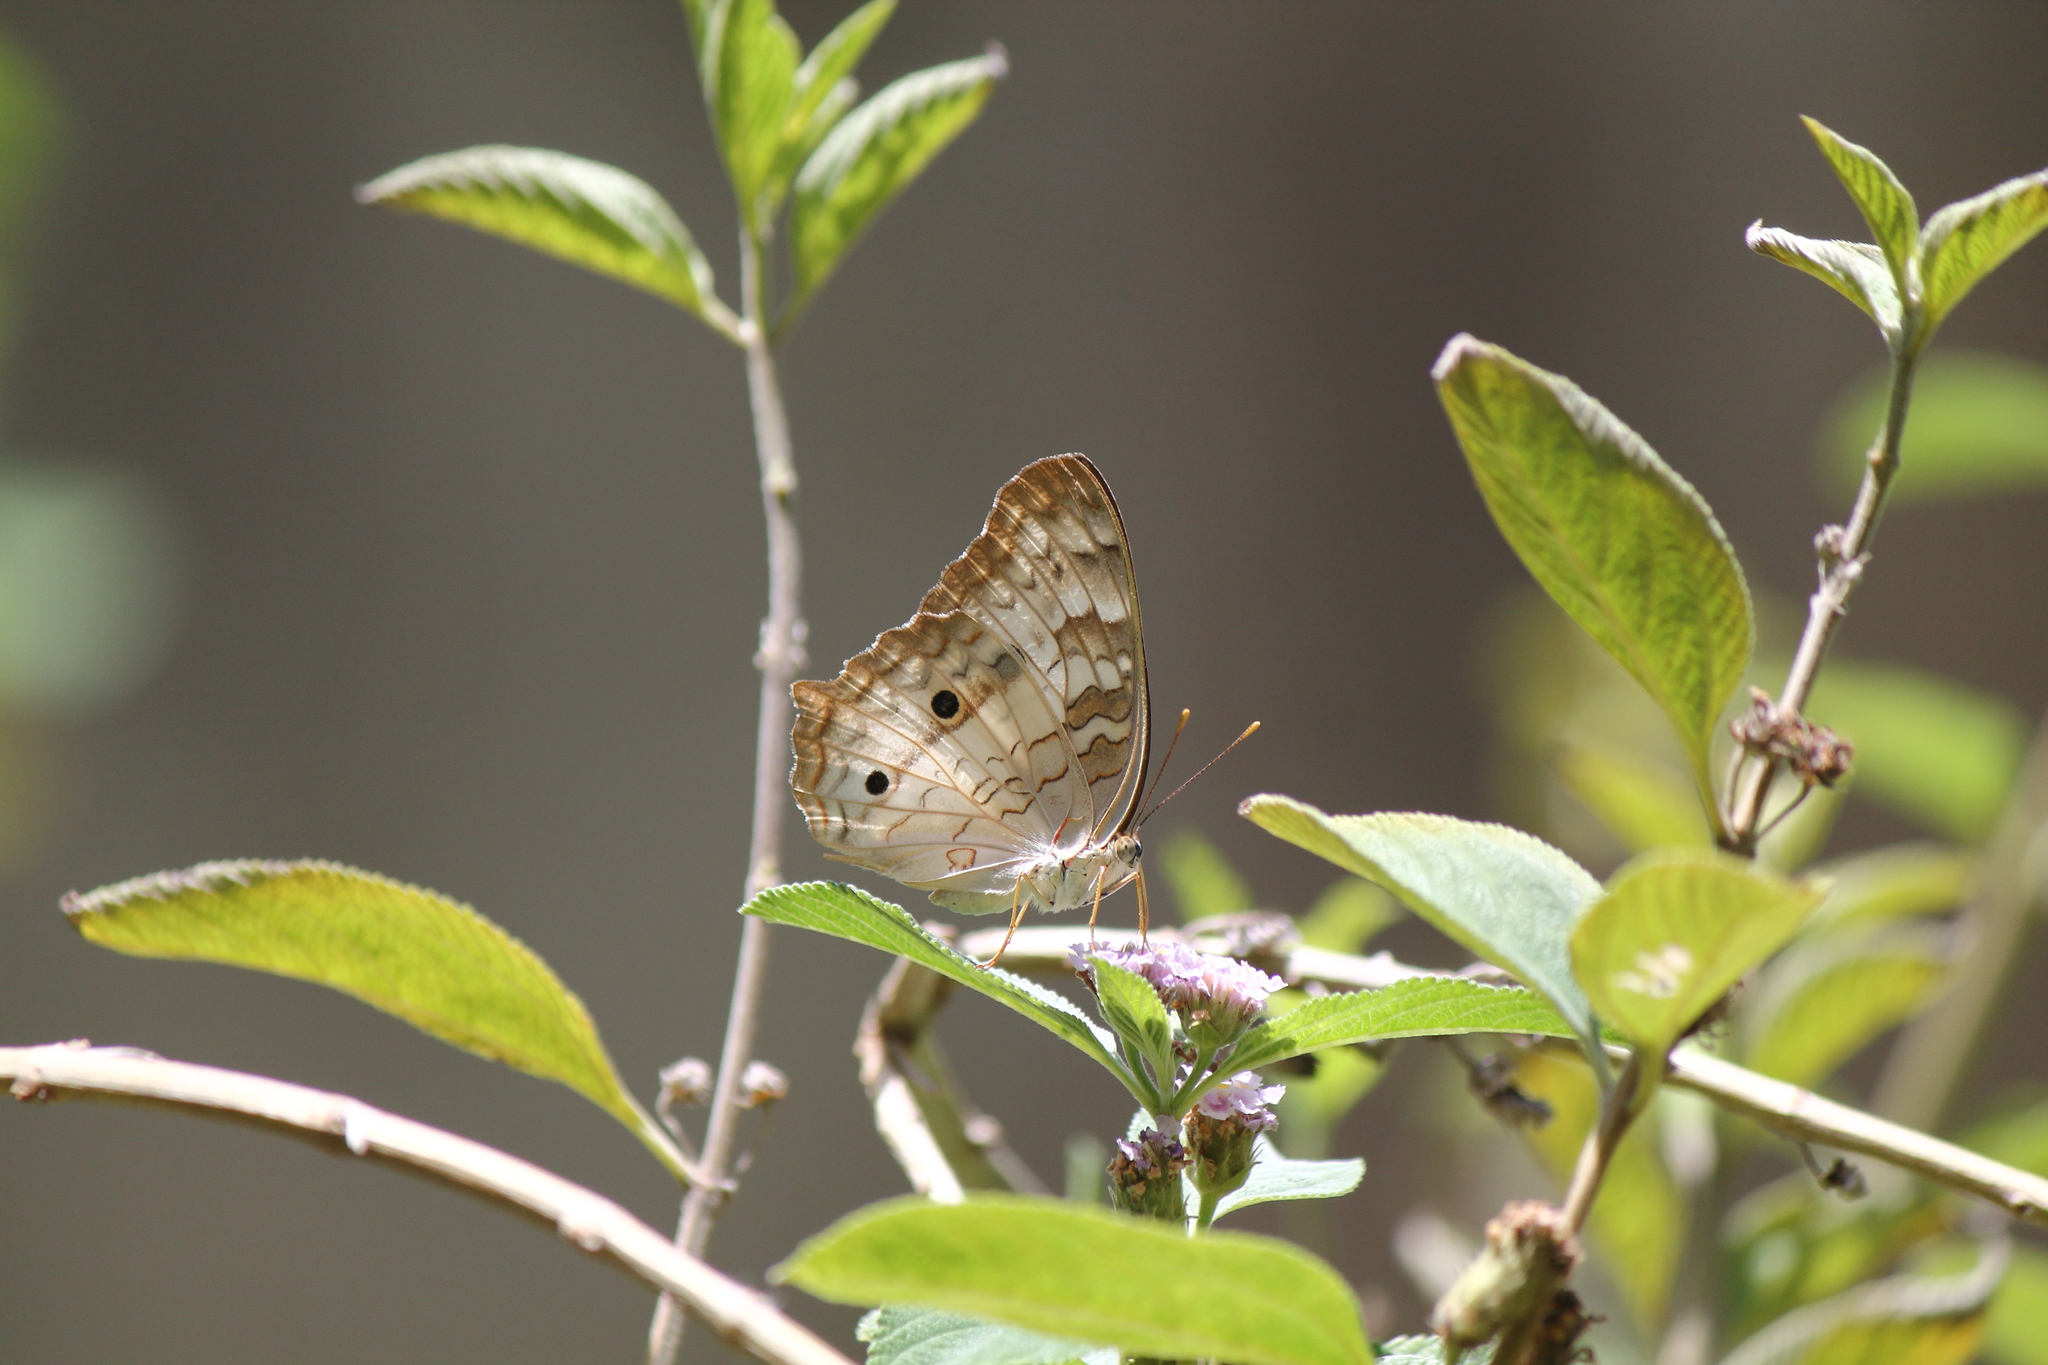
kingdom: Animalia
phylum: Arthropoda
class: Insecta
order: Lepidoptera
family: Nymphalidae
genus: Anartia
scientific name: Anartia jatrophae
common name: White peacock
